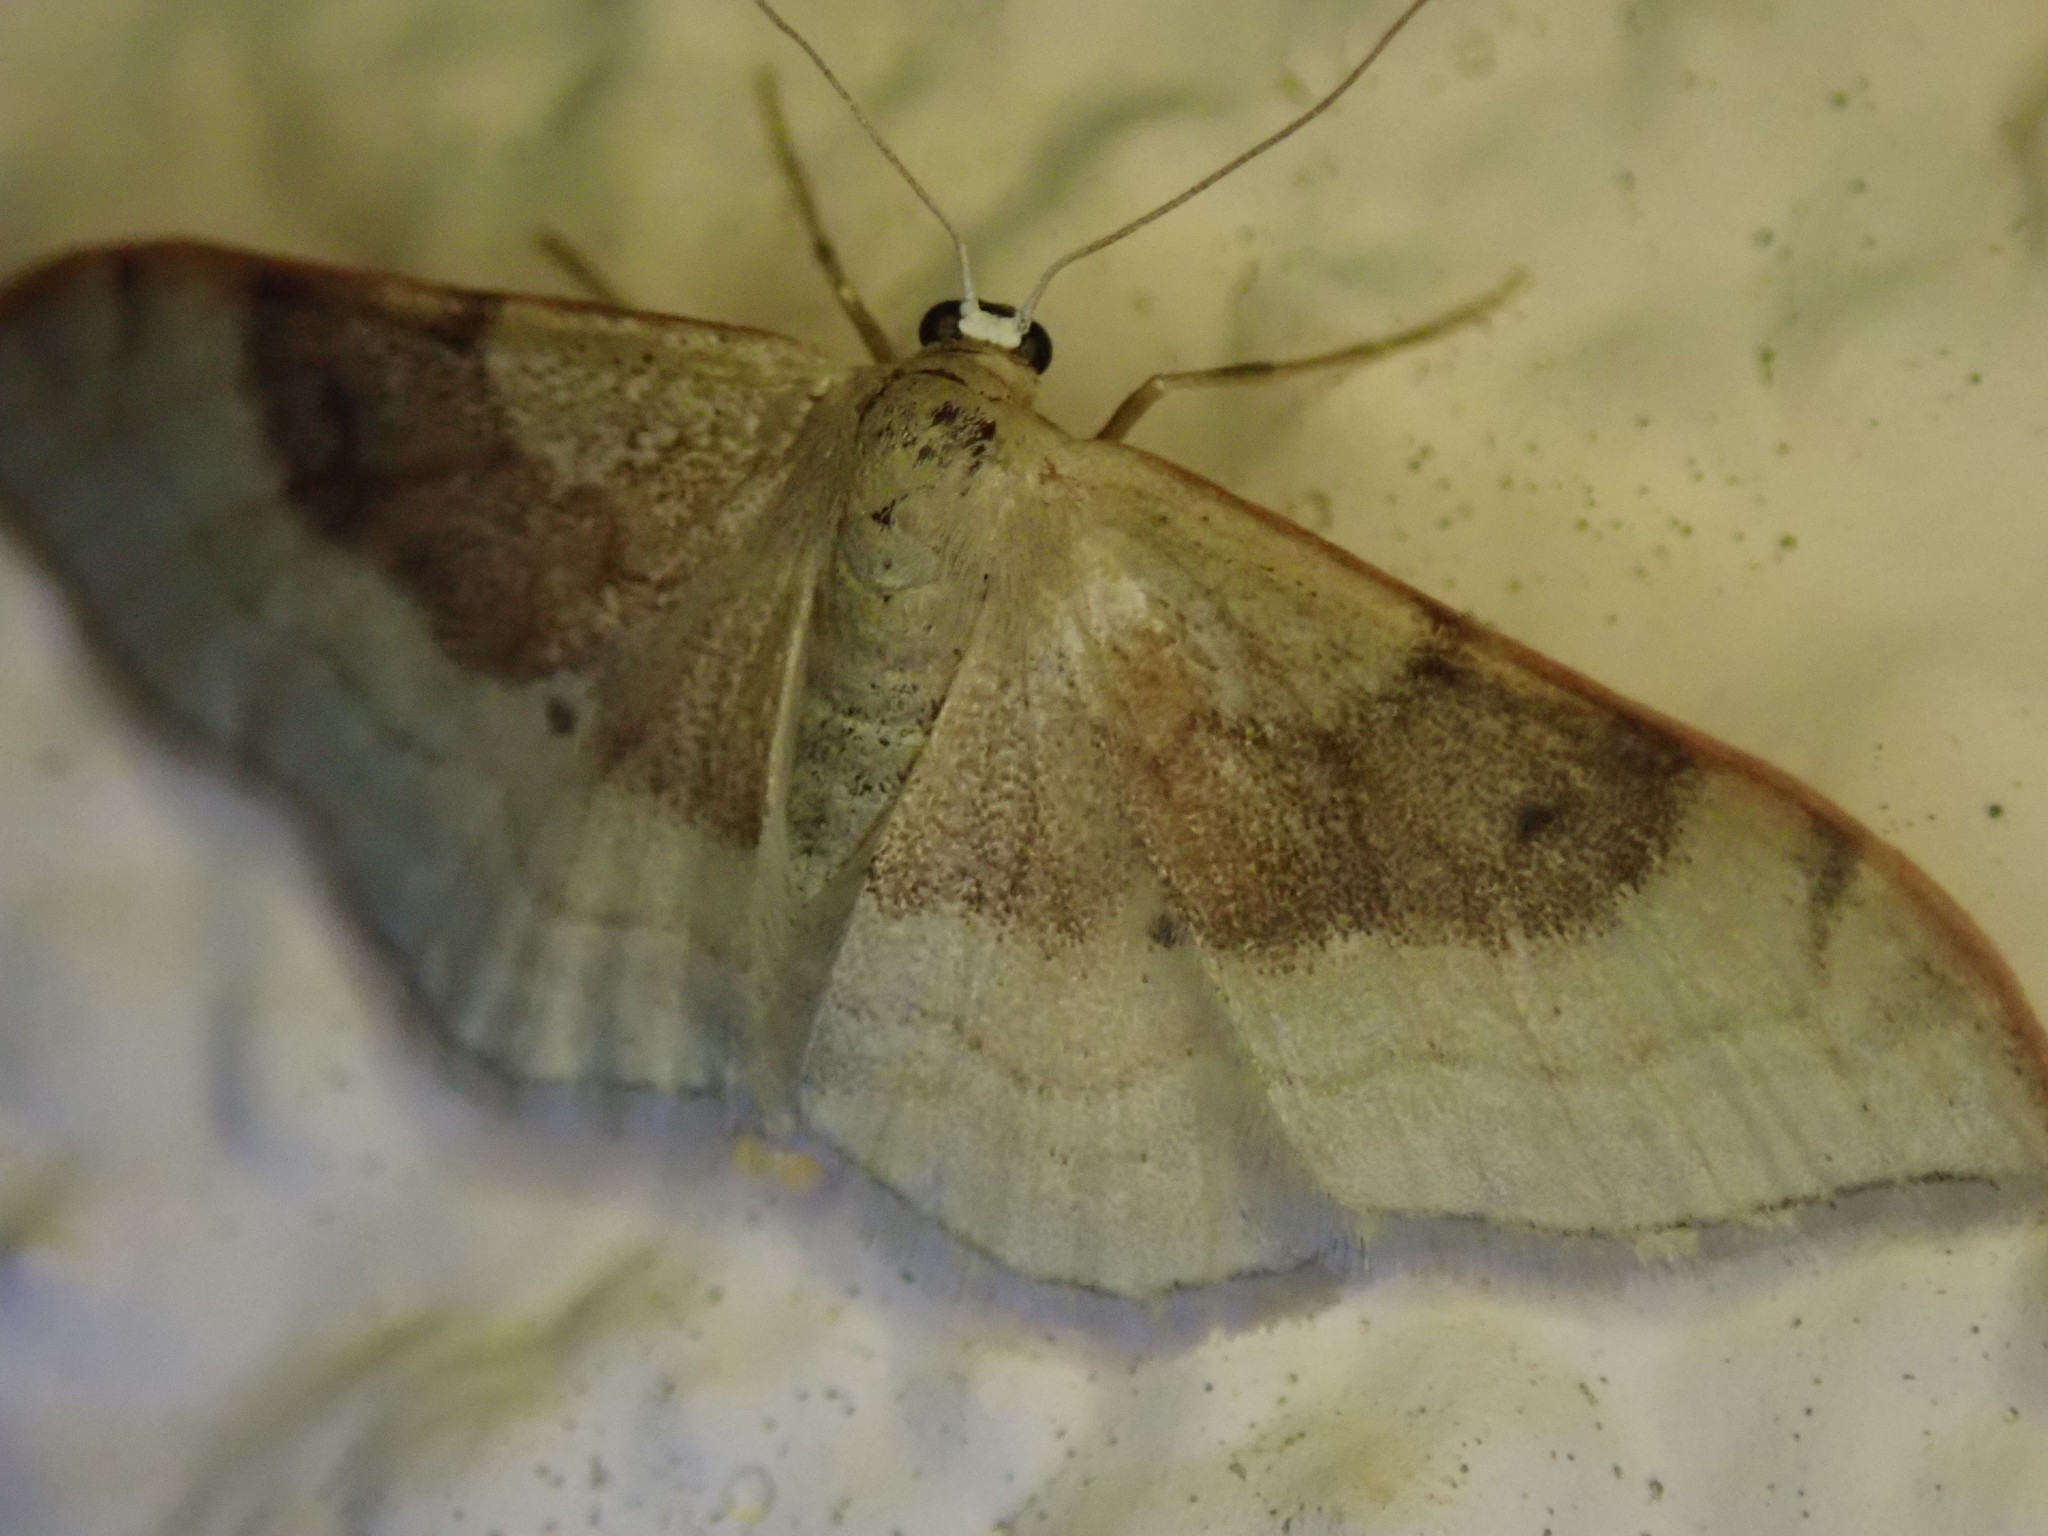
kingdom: Animalia
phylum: Arthropoda
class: Insecta
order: Lepidoptera
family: Geometridae
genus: Idaea
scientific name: Idaea degeneraria
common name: Portland ribbon wave
